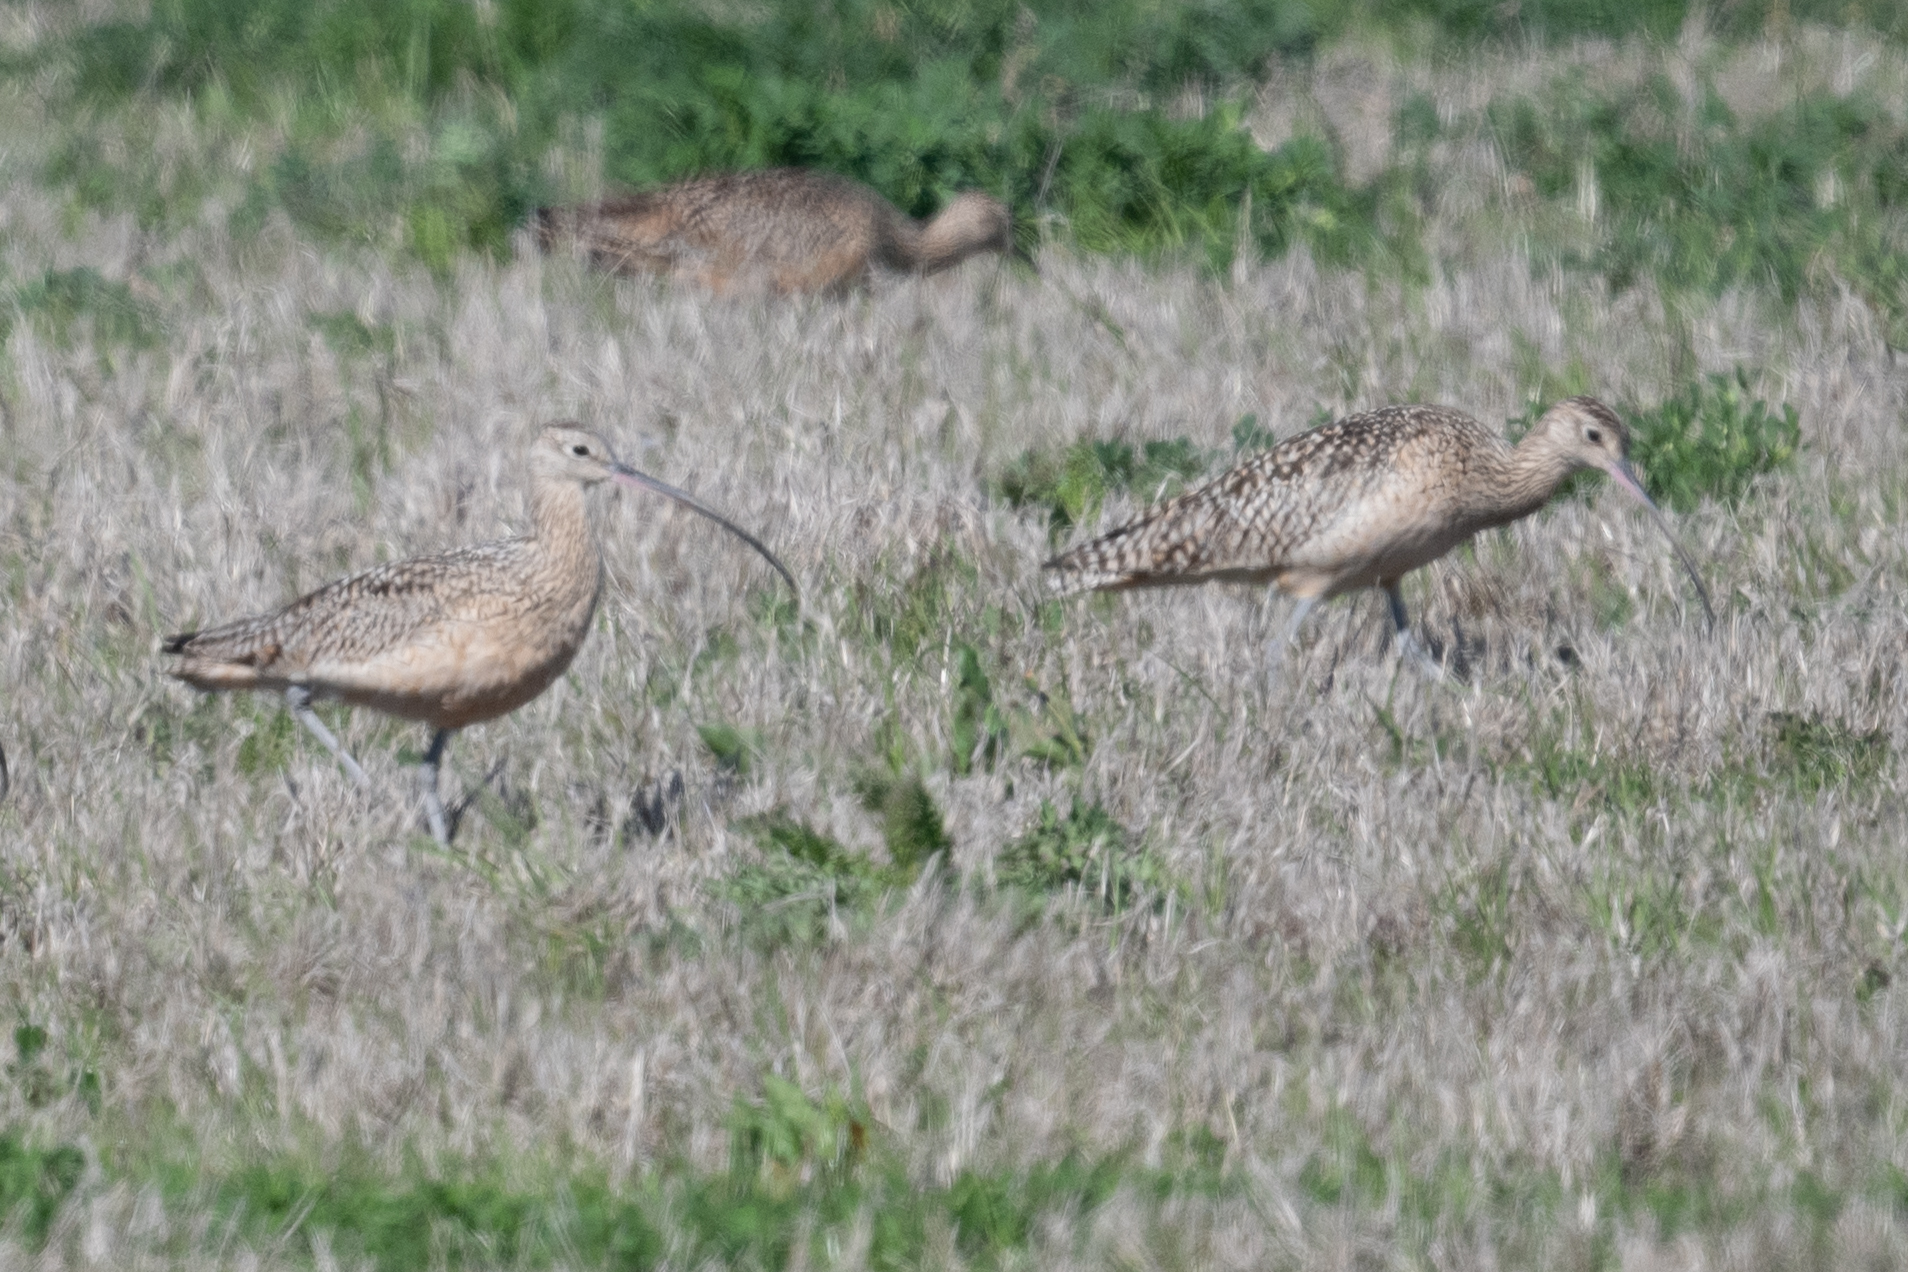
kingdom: Animalia
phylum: Chordata
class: Aves
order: Charadriiformes
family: Scolopacidae
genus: Numenius
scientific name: Numenius americanus
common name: Long-billed curlew
